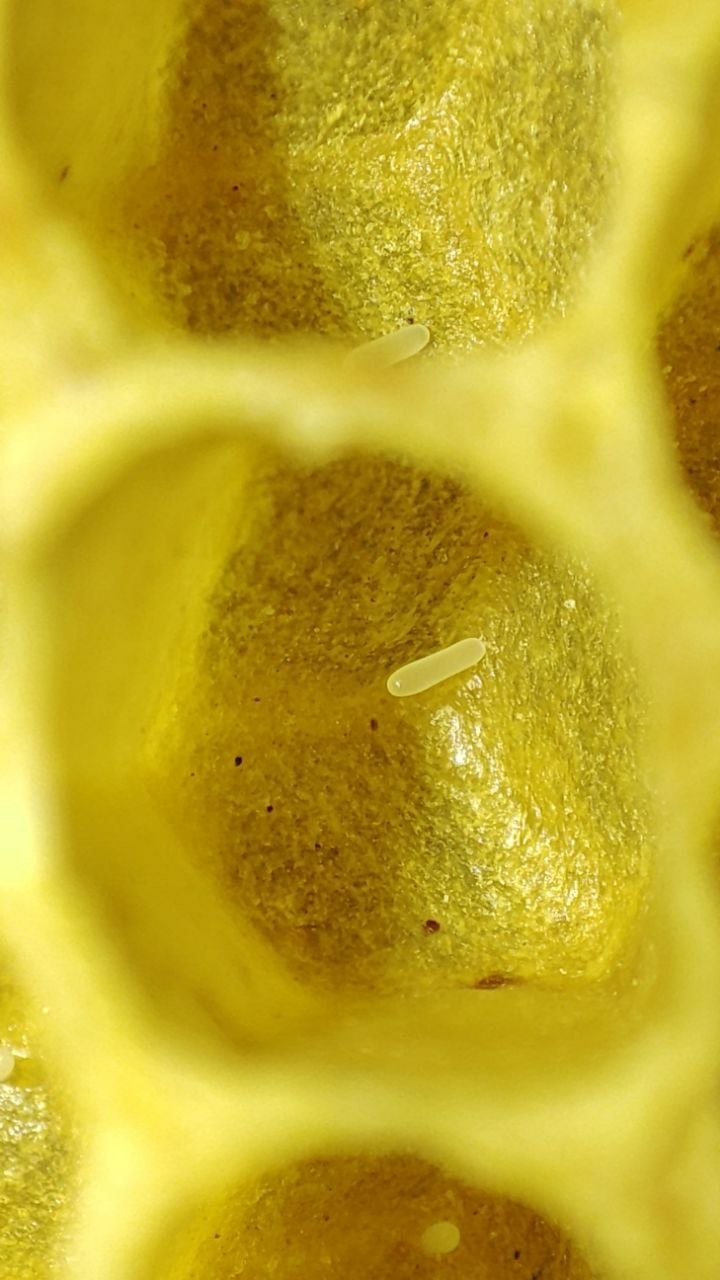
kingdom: Animalia
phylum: Arthropoda
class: Insecta
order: Hymenoptera
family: Apidae
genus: Apis
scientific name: Apis mellifera
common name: Honey bee
